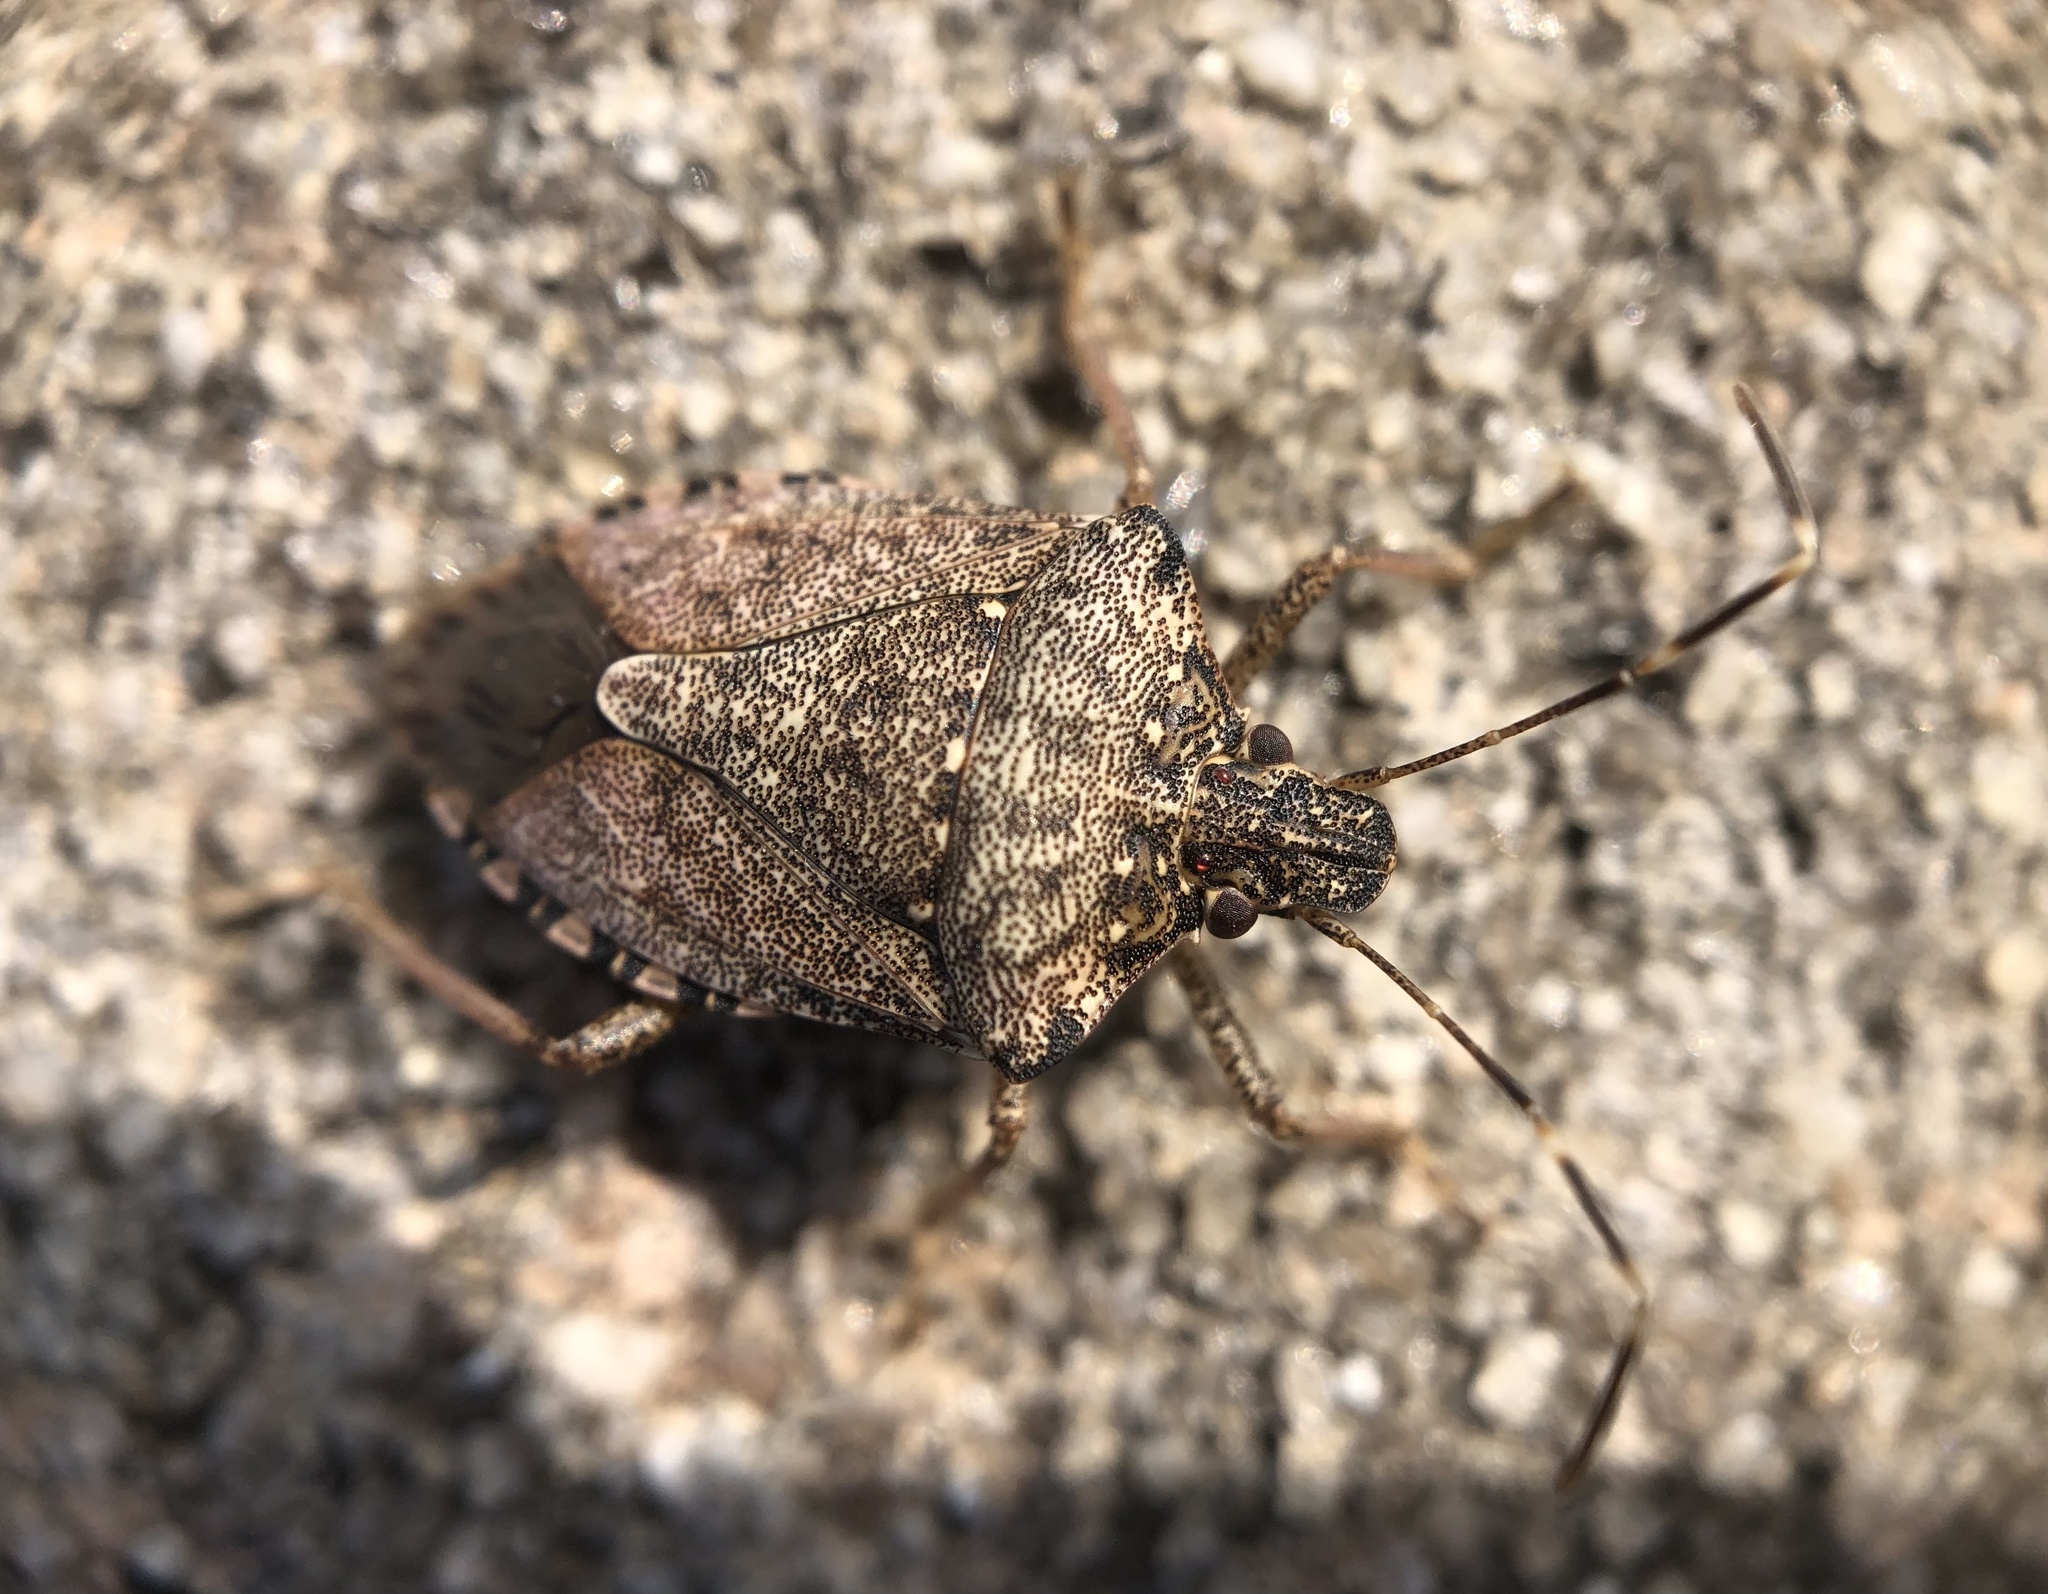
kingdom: Animalia
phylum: Arthropoda
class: Insecta
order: Hemiptera
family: Pentatomidae
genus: Halyomorpha
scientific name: Halyomorpha halys
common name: Brown marmorated stink bug
